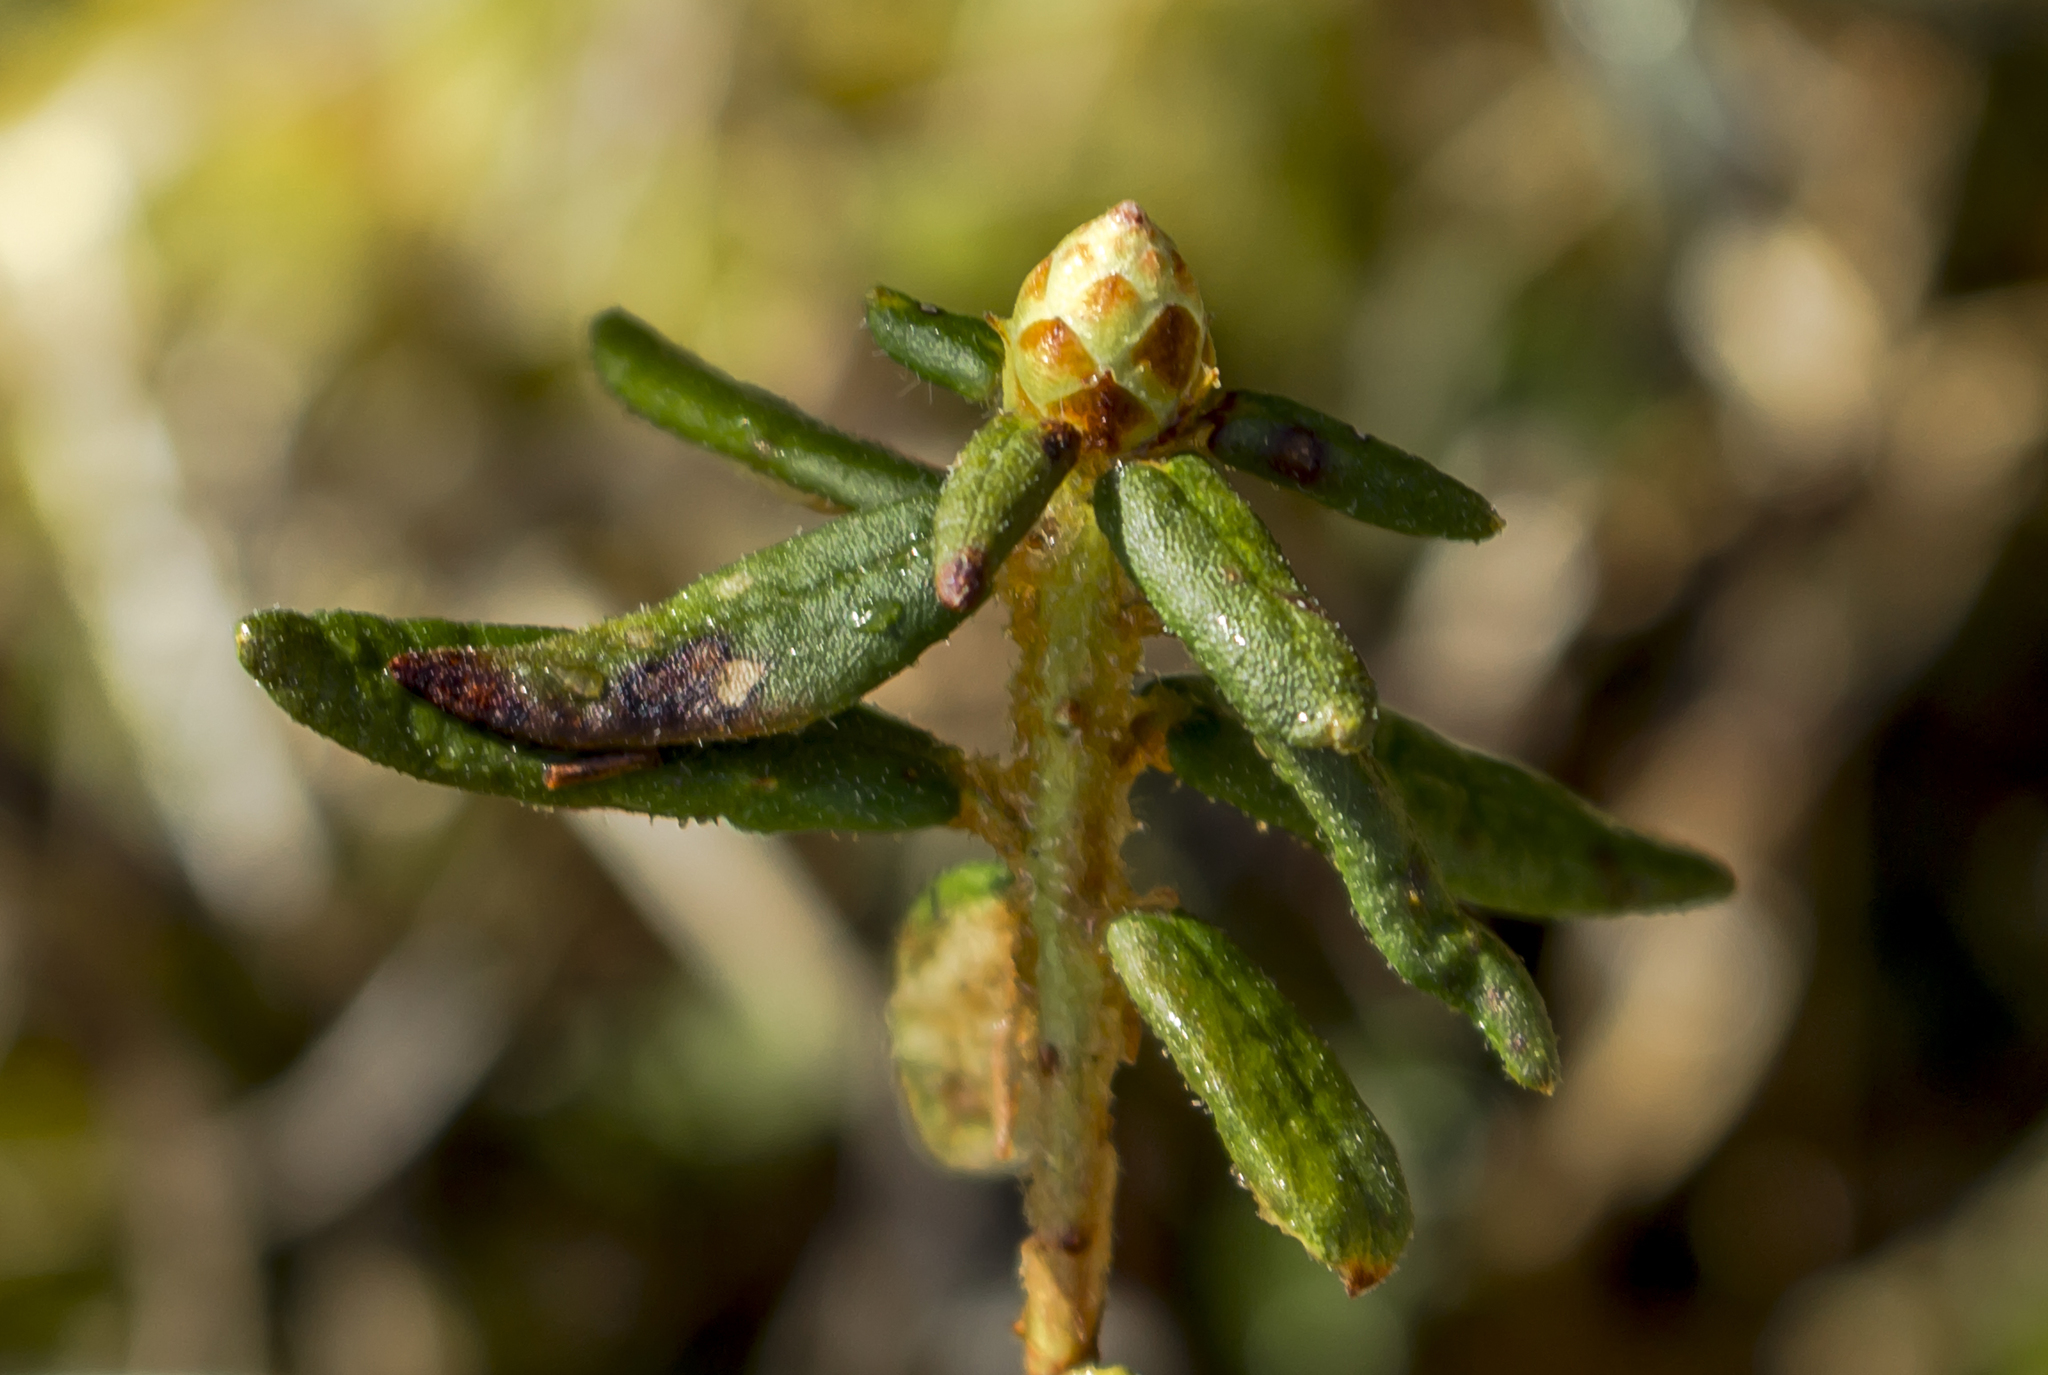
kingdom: Plantae
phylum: Tracheophyta
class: Magnoliopsida
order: Ericales
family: Ericaceae
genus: Rhododendron
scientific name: Rhododendron groenlandicum
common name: Bog labrador tea
